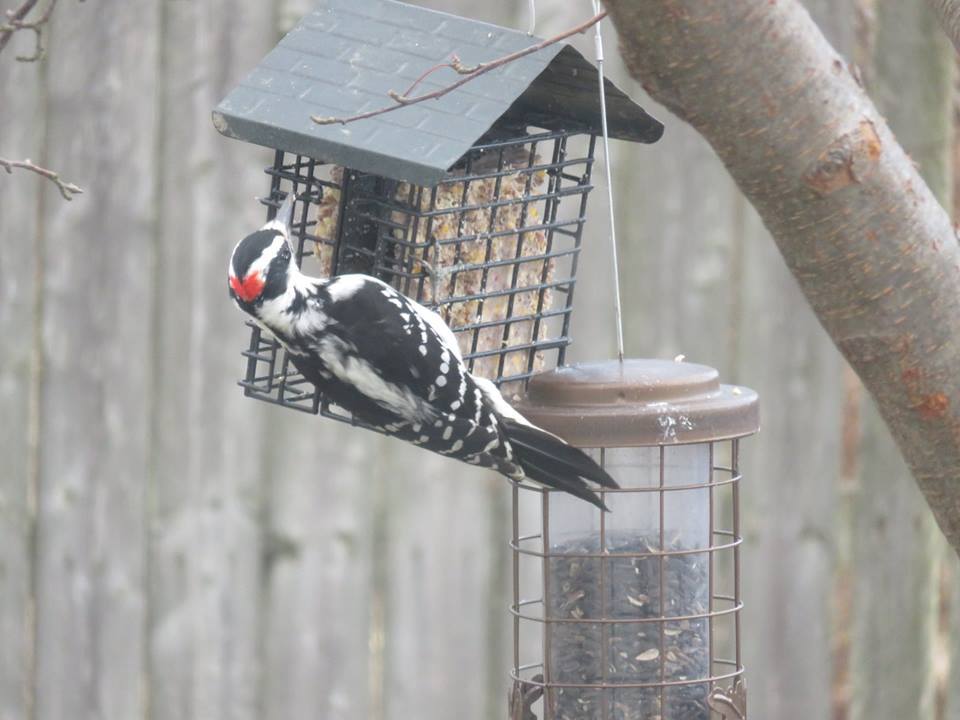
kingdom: Animalia
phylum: Chordata
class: Aves
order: Piciformes
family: Picidae
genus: Leuconotopicus
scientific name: Leuconotopicus villosus
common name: Hairy woodpecker
